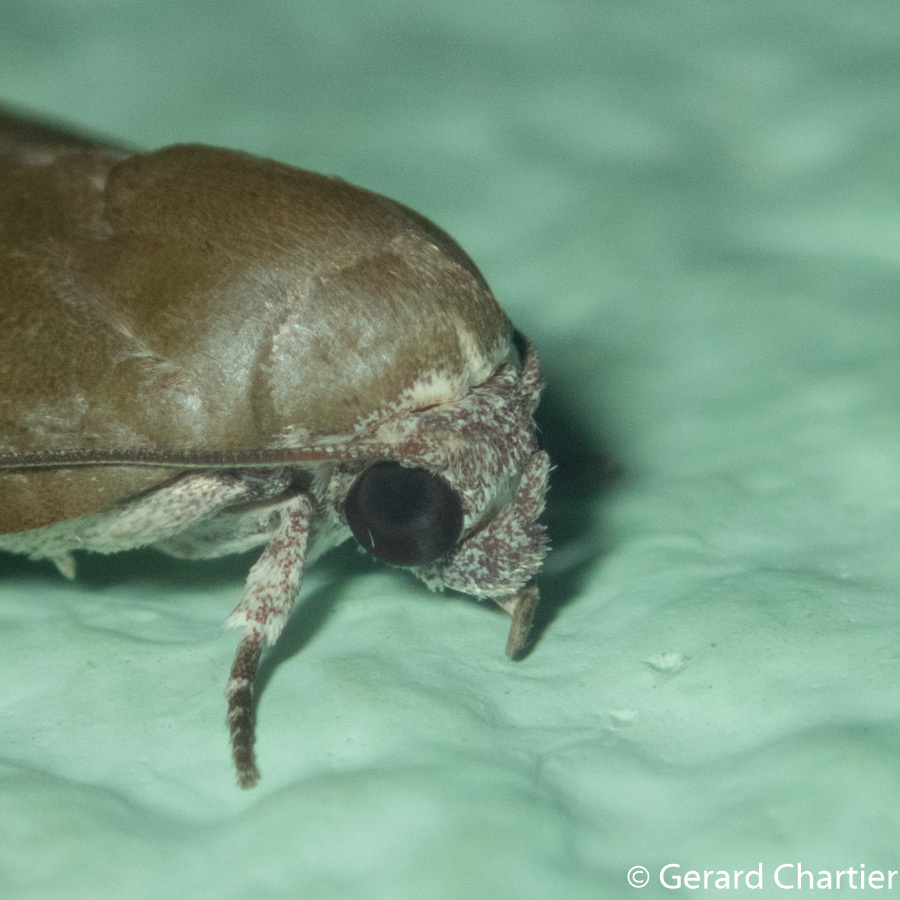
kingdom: Animalia
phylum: Arthropoda
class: Insecta
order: Lepidoptera
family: Nolidae
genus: Asinduma
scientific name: Asinduma exscripta
